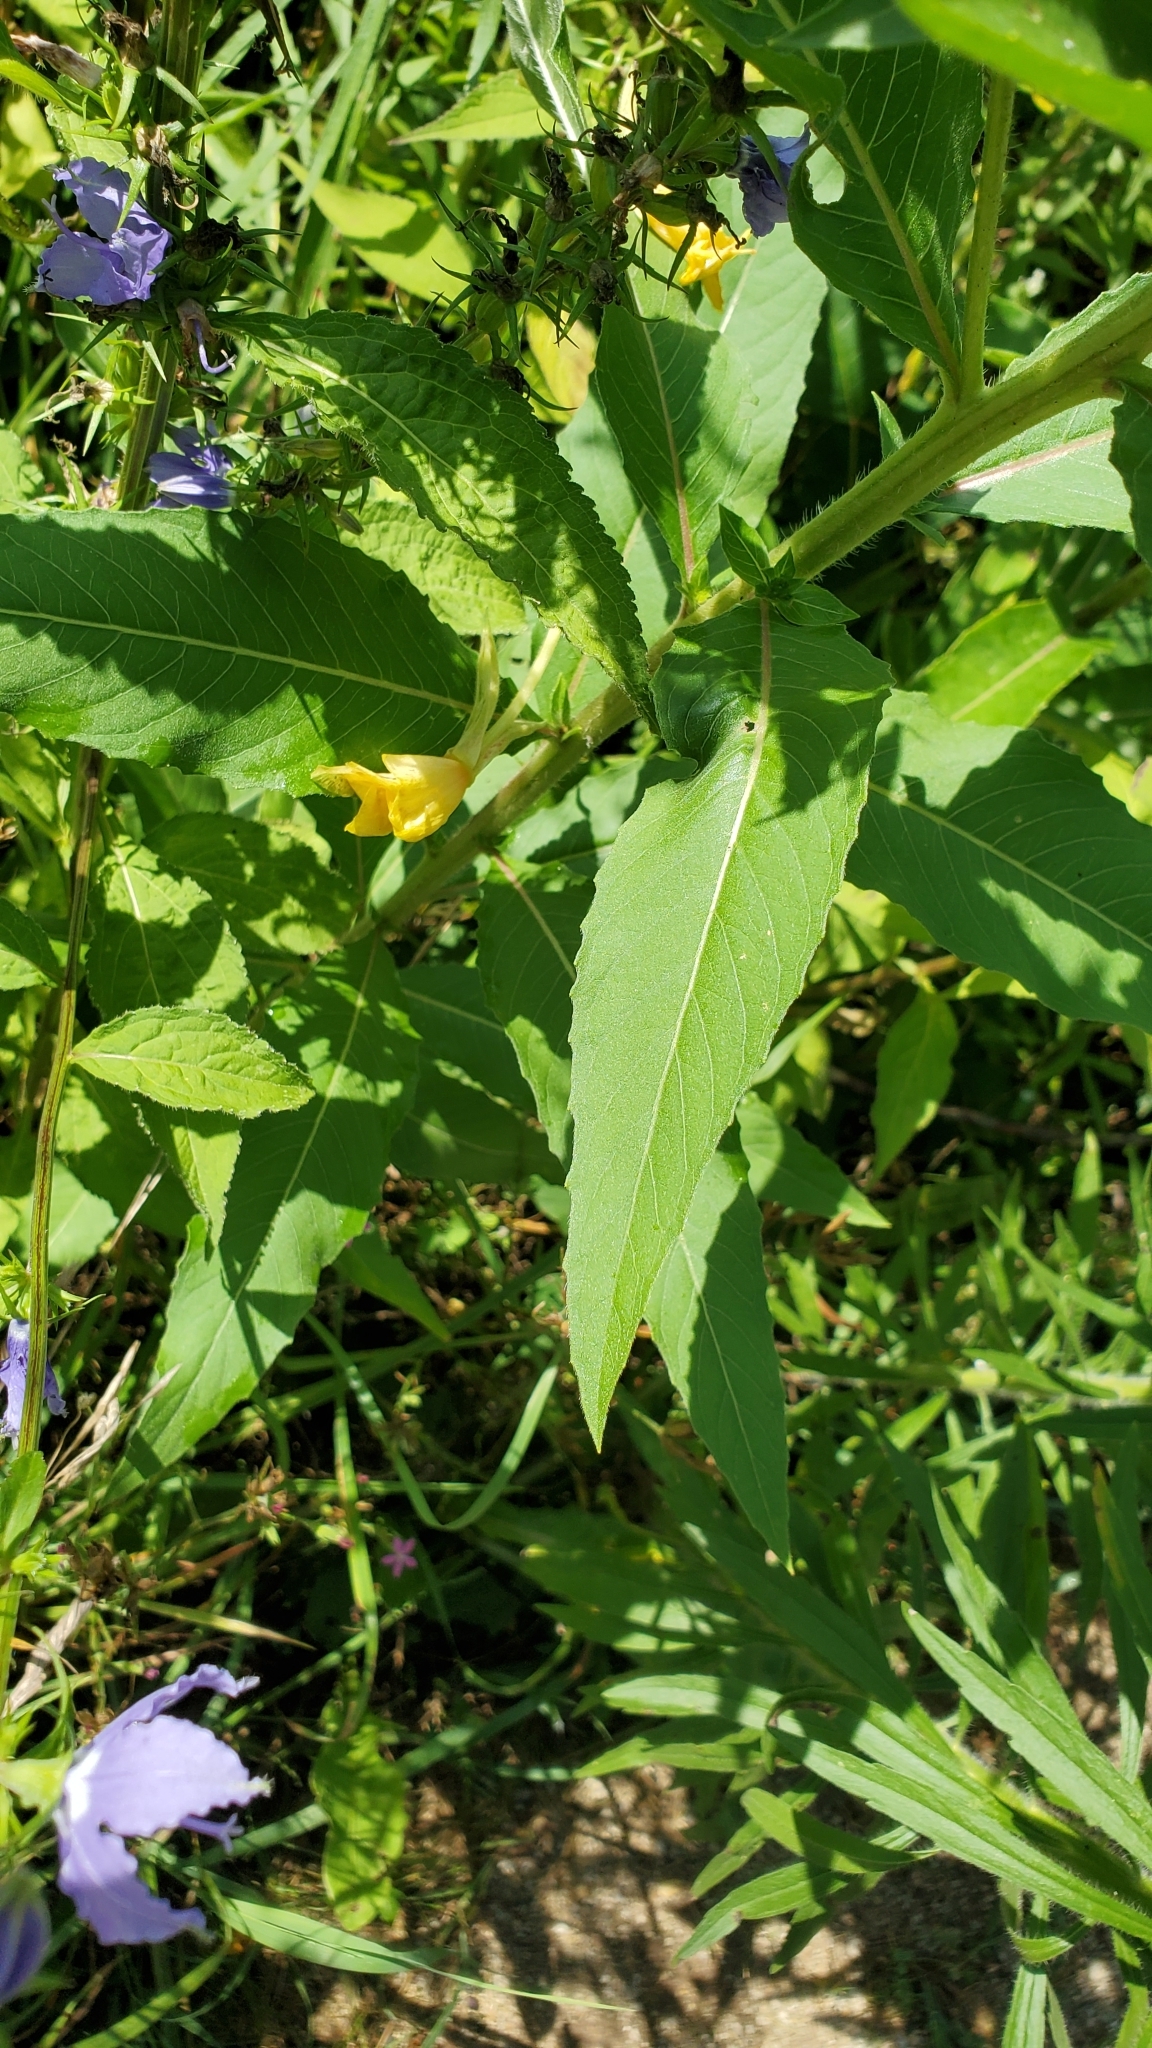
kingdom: Plantae
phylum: Tracheophyta
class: Magnoliopsida
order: Myrtales
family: Onagraceae
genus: Oenothera
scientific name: Oenothera biennis
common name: Common evening-primrose
